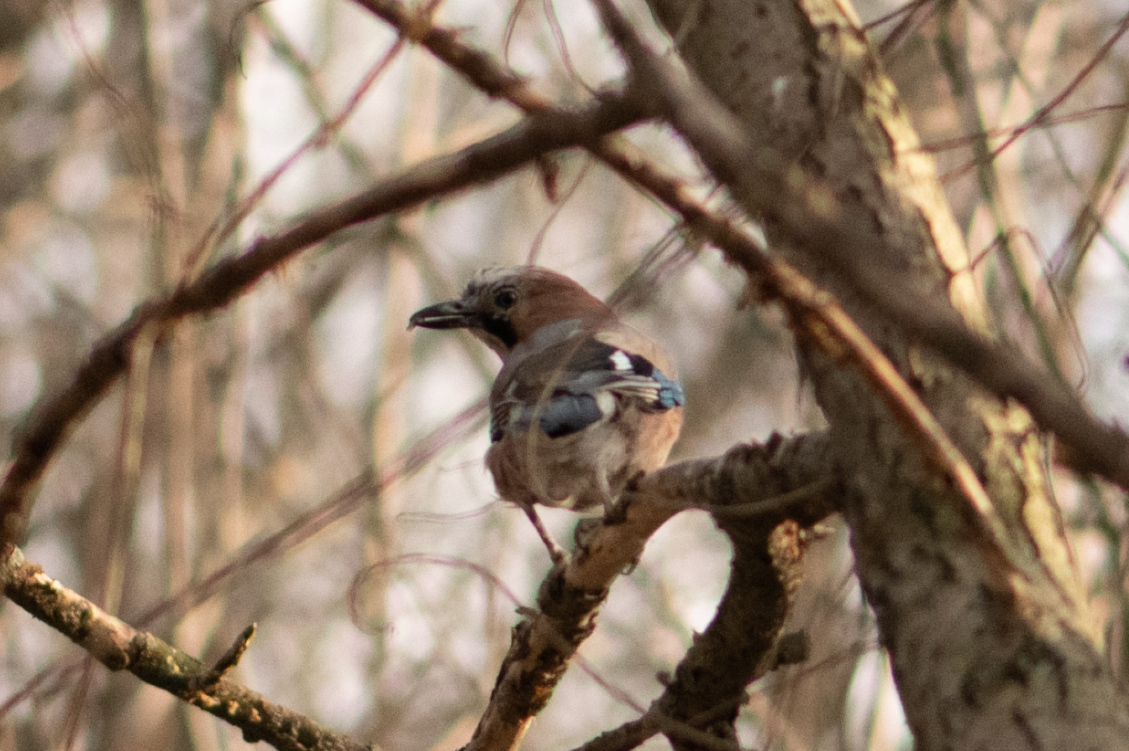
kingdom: Animalia
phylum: Chordata
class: Aves
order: Passeriformes
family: Corvidae
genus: Garrulus
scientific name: Garrulus glandarius
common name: Eurasian jay
